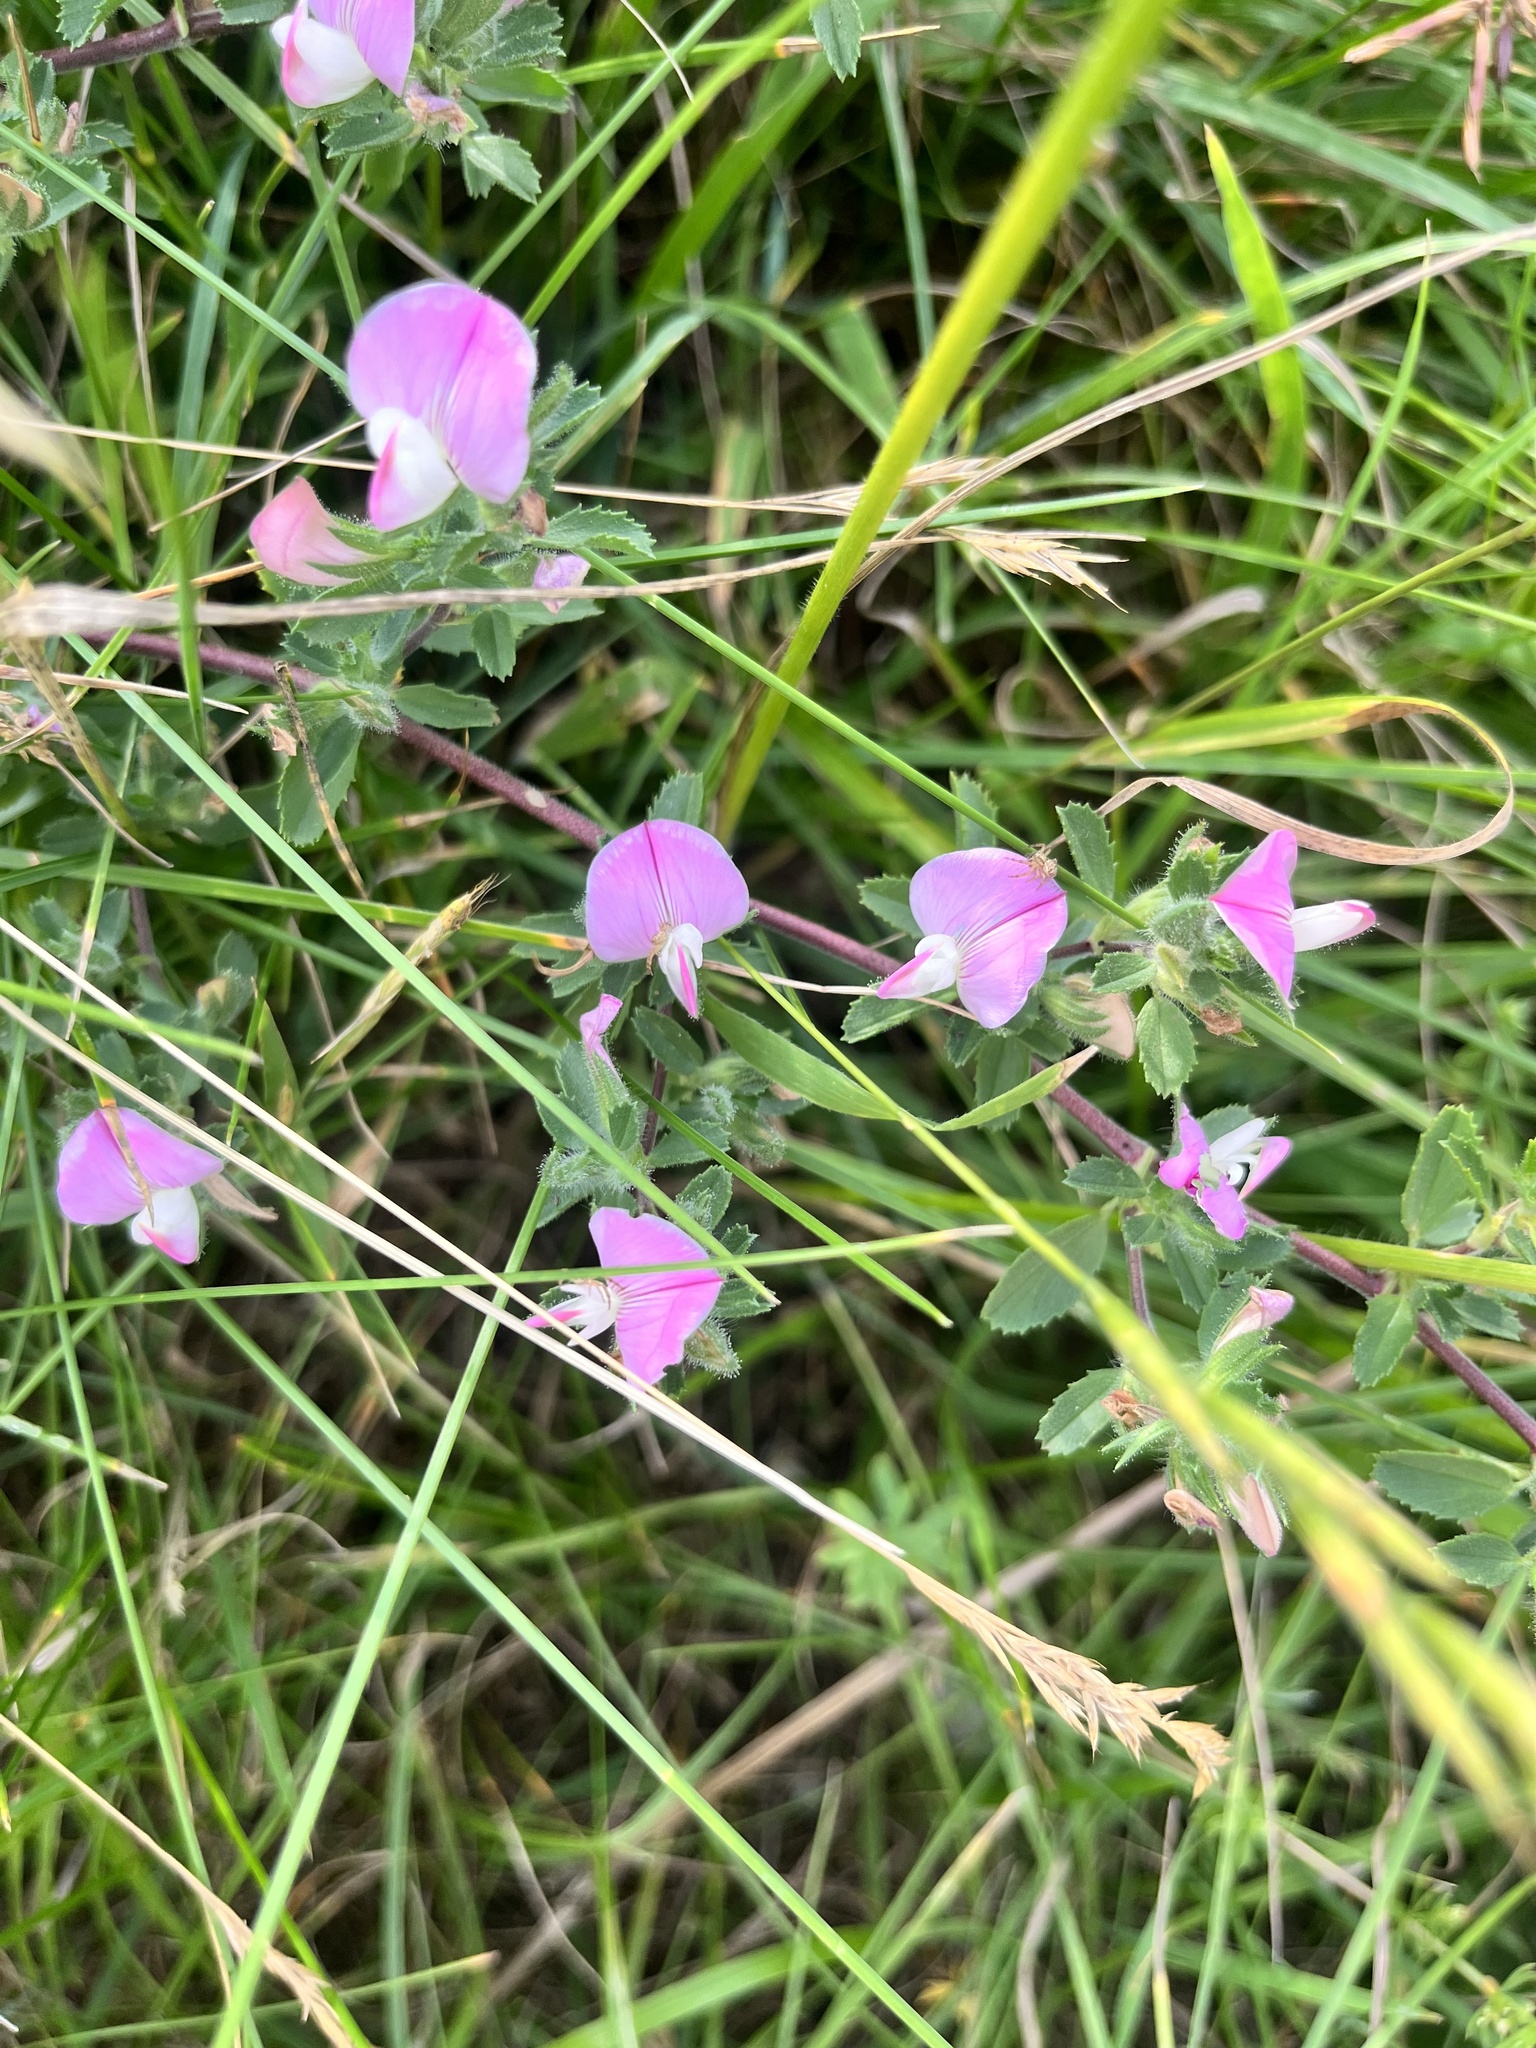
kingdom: Plantae
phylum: Tracheophyta
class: Magnoliopsida
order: Fabales
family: Fabaceae
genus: Ononis
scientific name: Ononis spinosa
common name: Spiny restharrow
